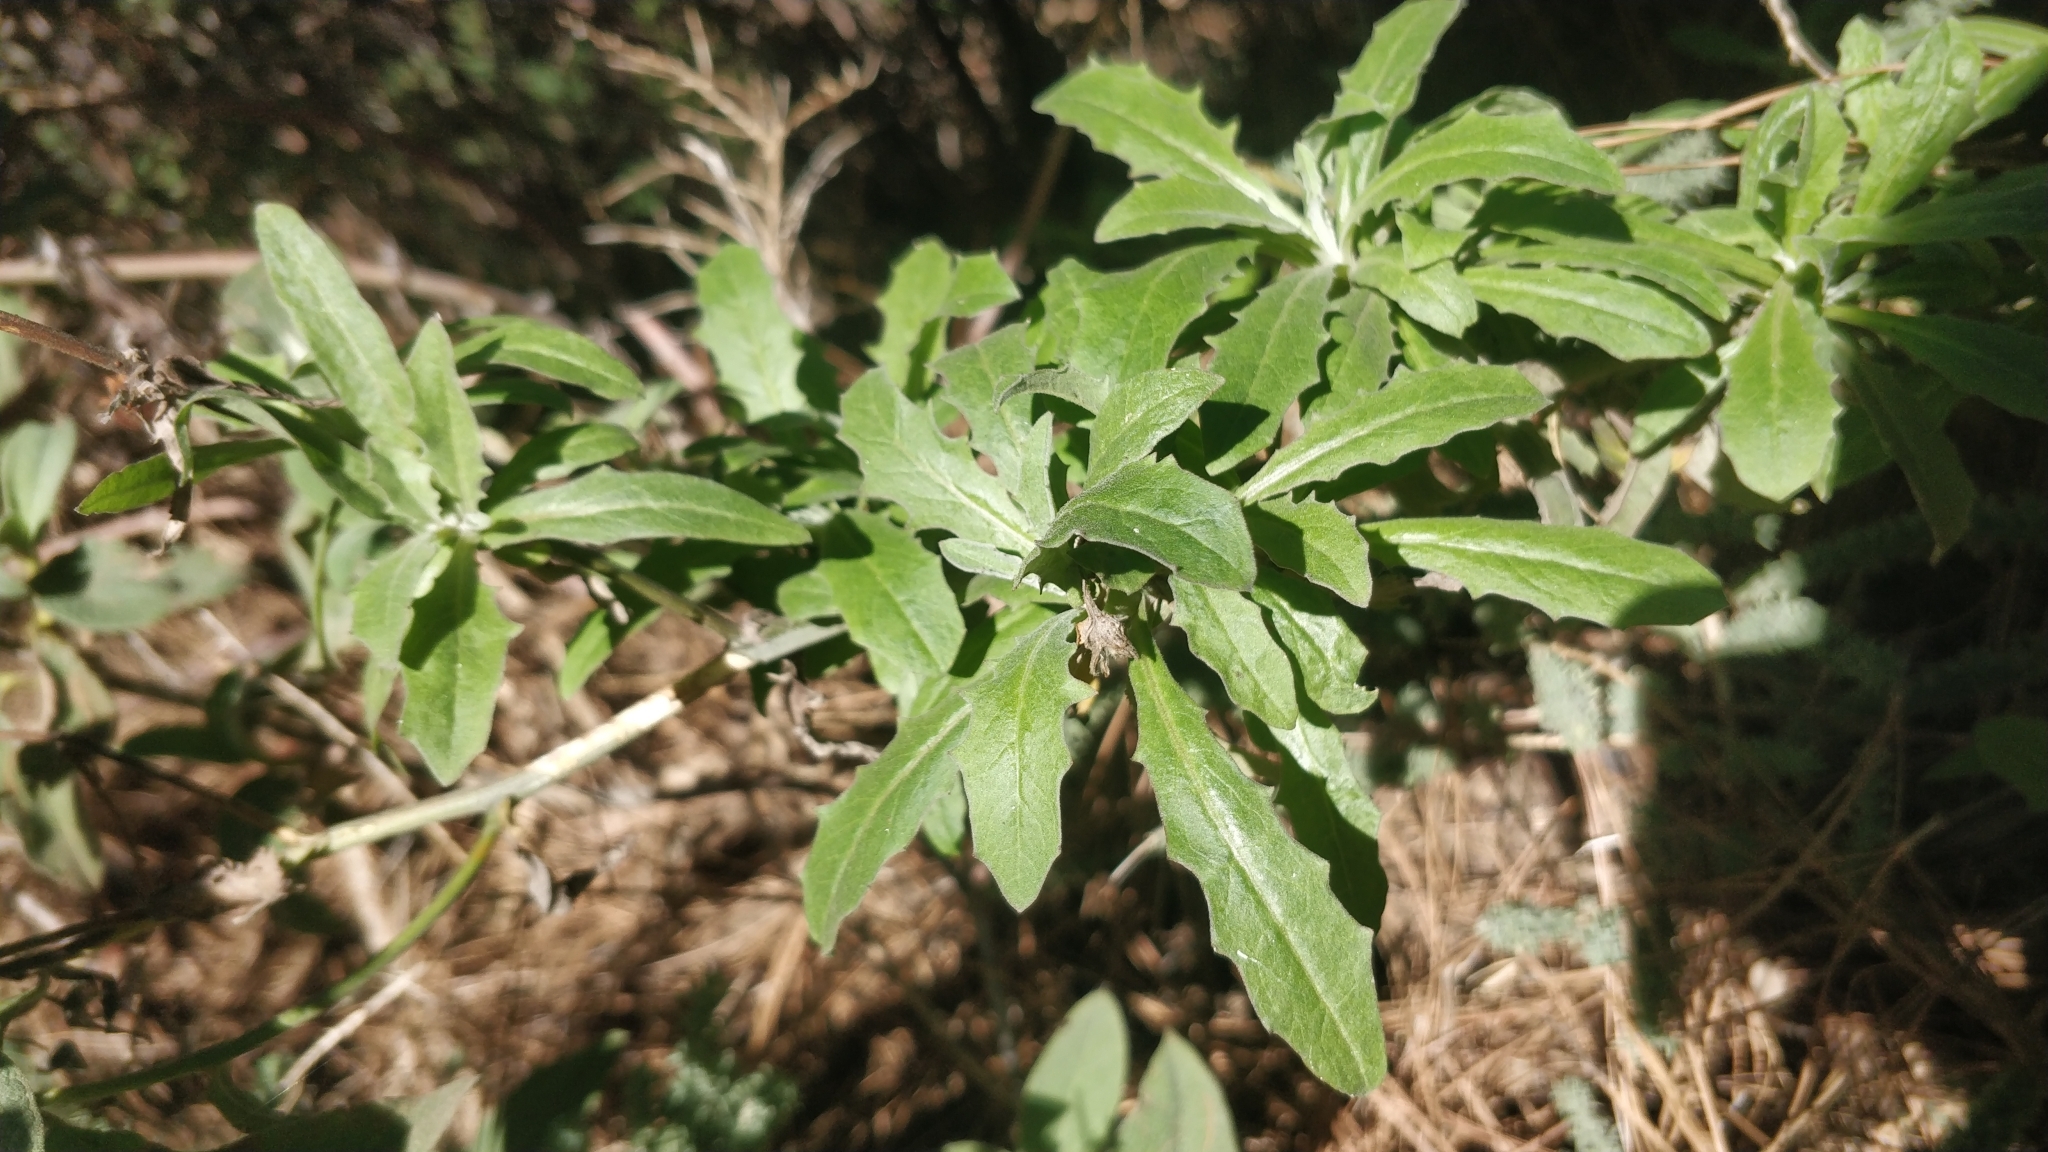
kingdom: Plantae
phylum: Tracheophyta
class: Magnoliopsida
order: Asterales
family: Asteraceae
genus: Andryala
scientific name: Andryala pinnatifida
